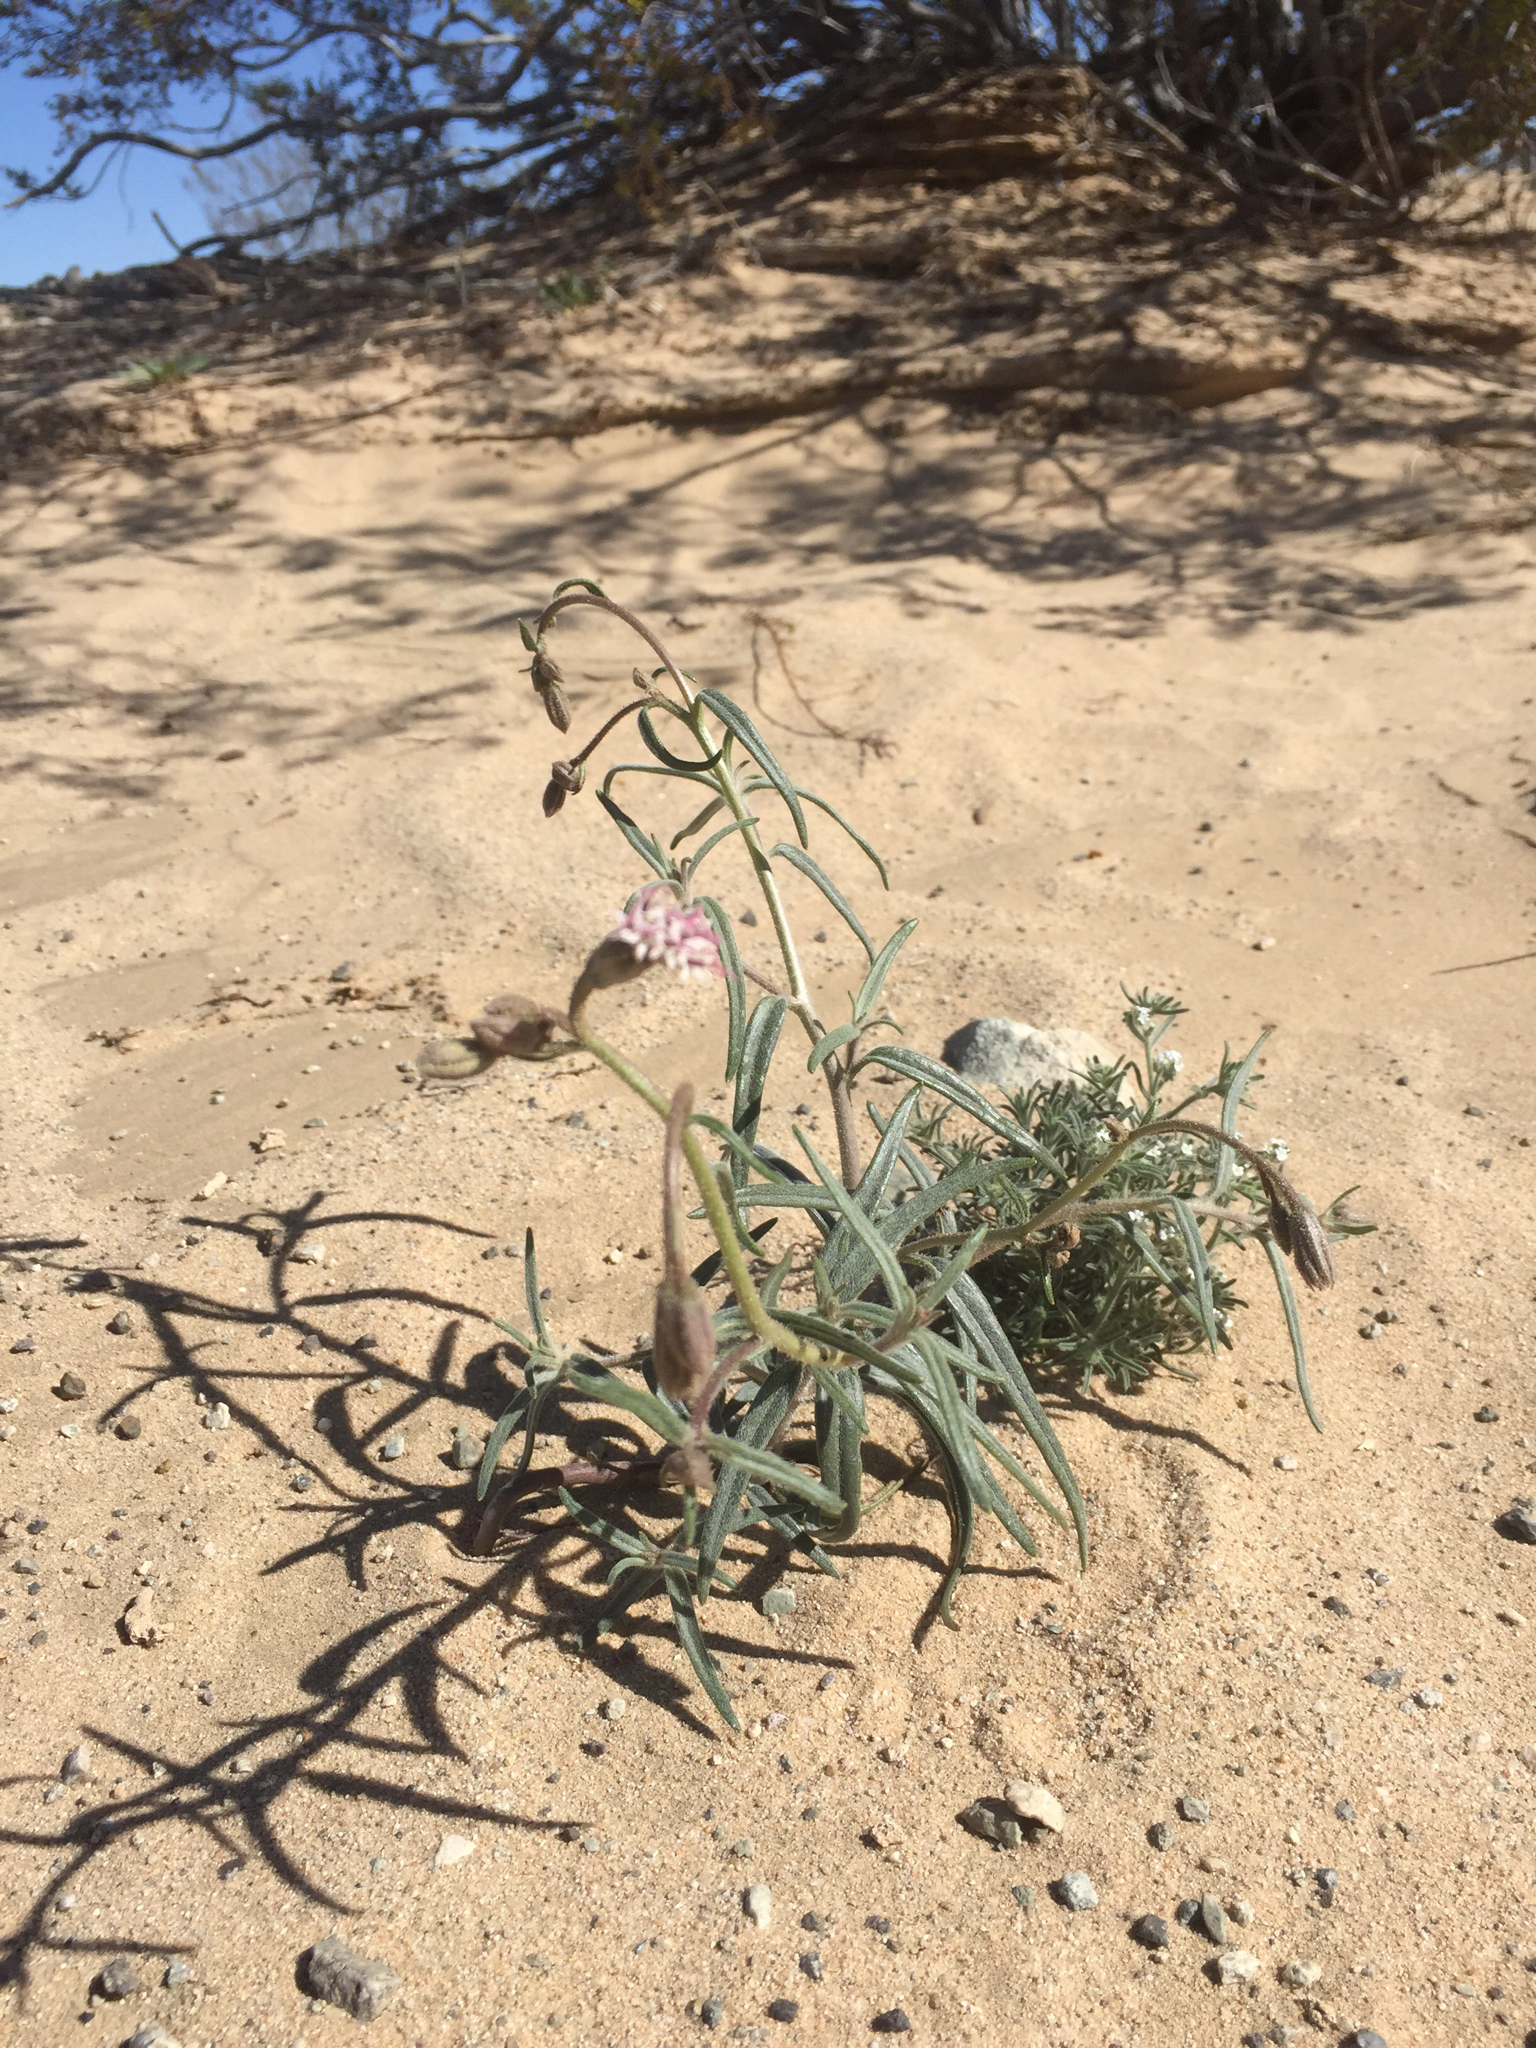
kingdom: Plantae
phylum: Tracheophyta
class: Magnoliopsida
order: Asterales
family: Asteraceae
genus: Palafoxia
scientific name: Palafoxia arida
